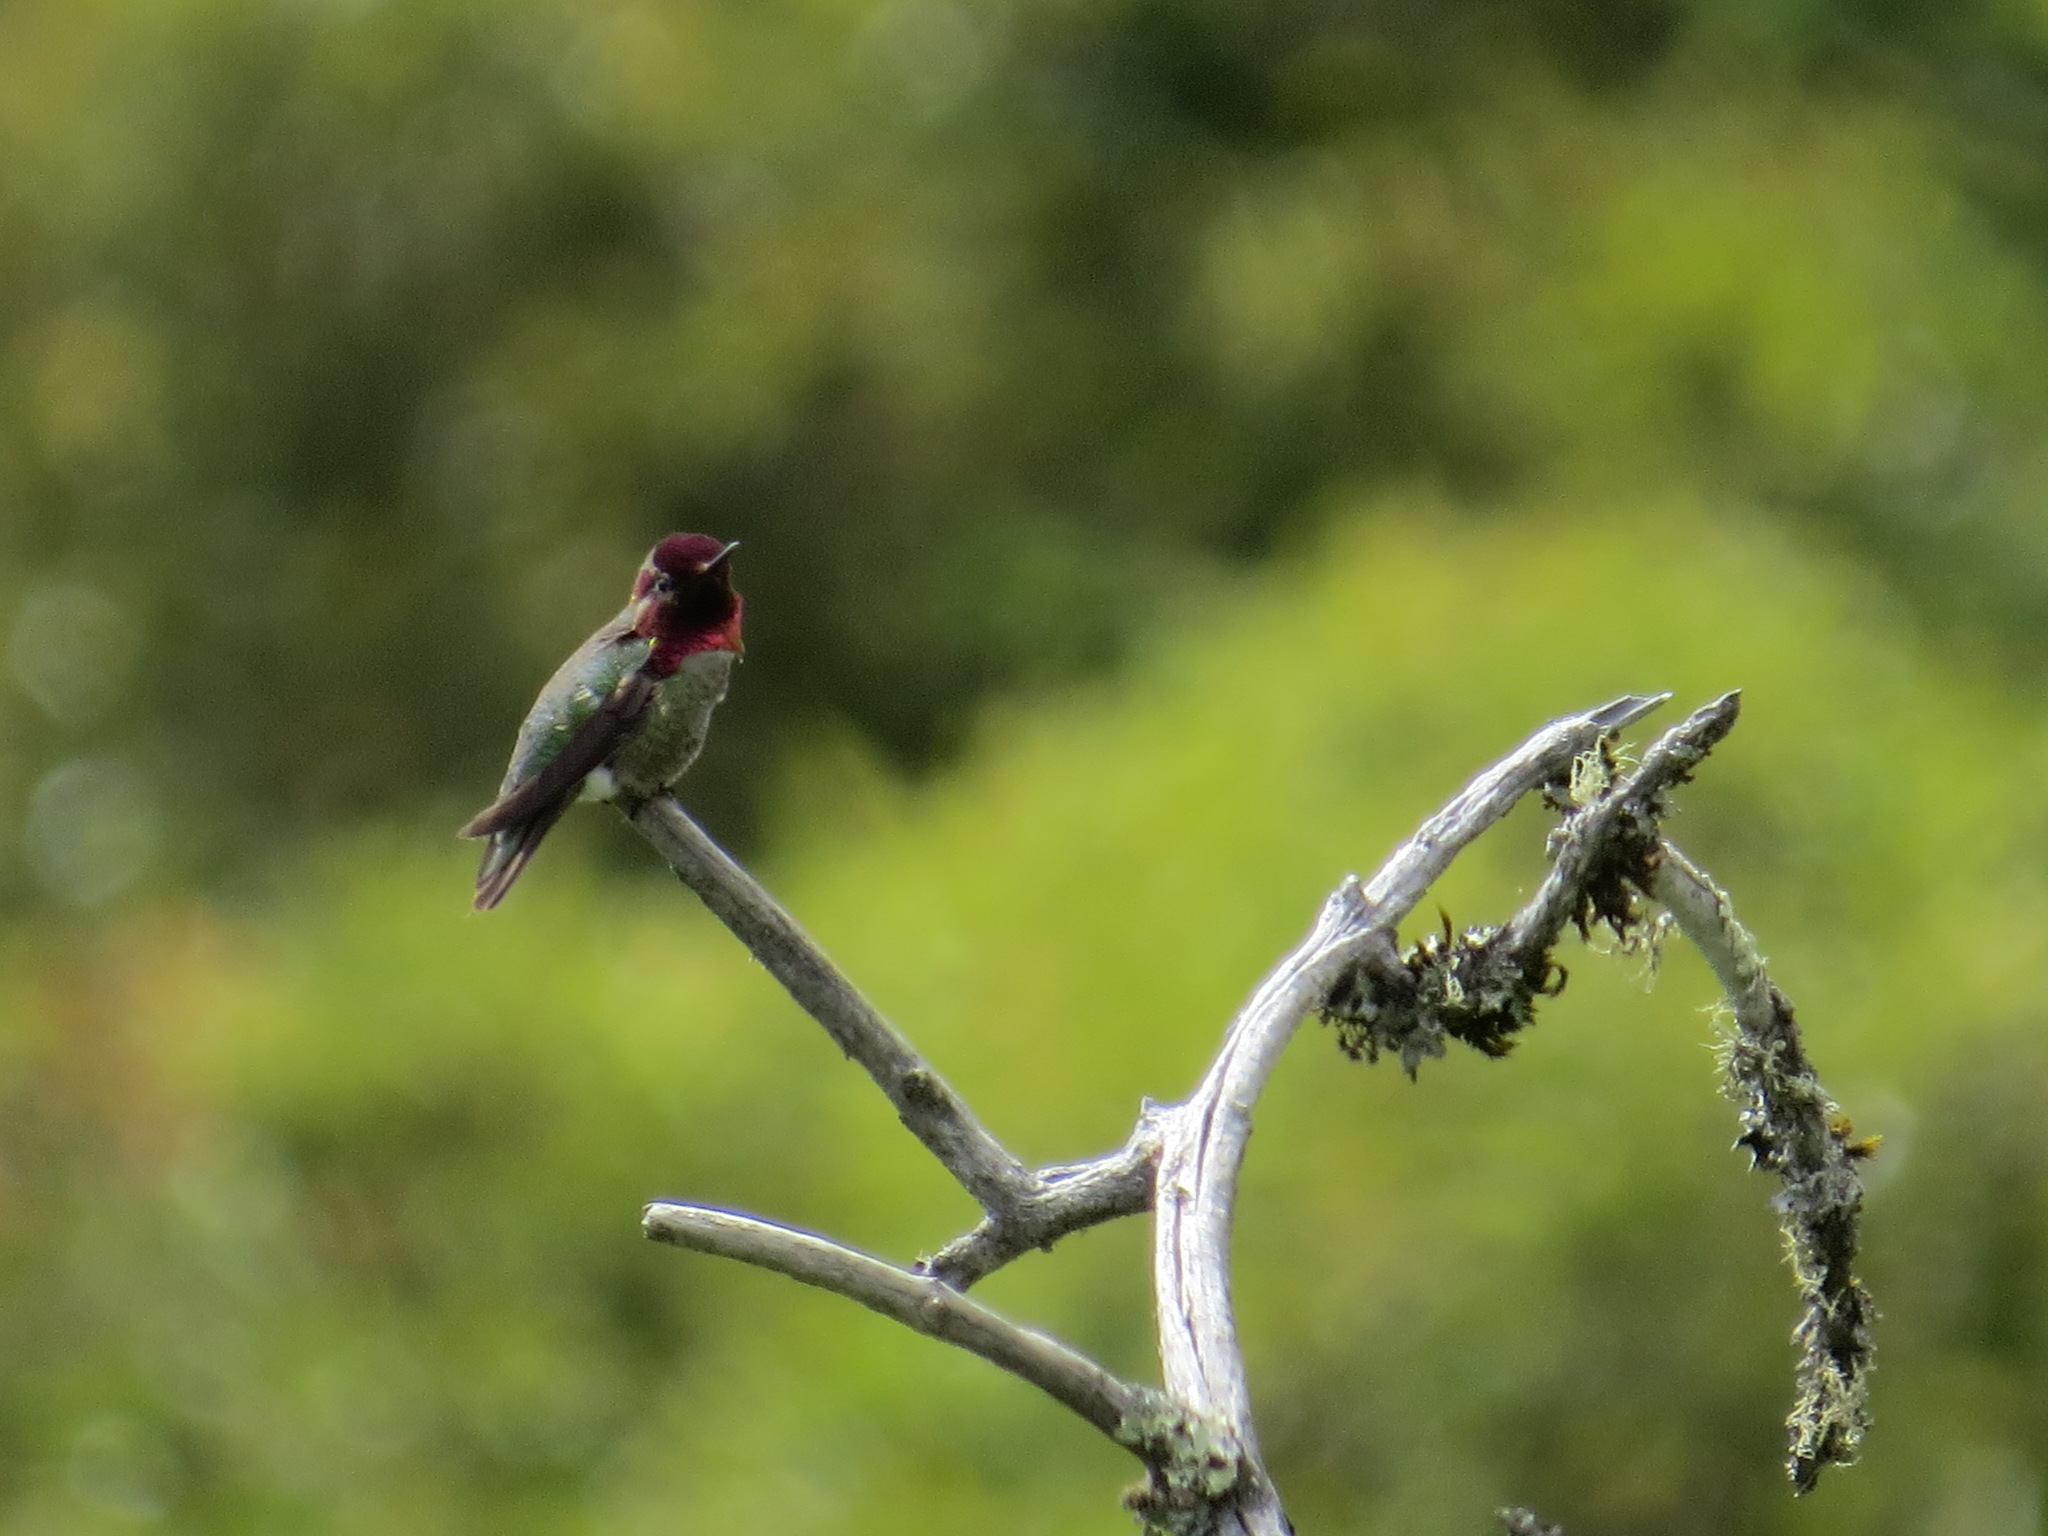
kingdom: Animalia
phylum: Chordata
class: Aves
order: Apodiformes
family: Trochilidae
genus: Calypte
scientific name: Calypte anna
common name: Anna's hummingbird
